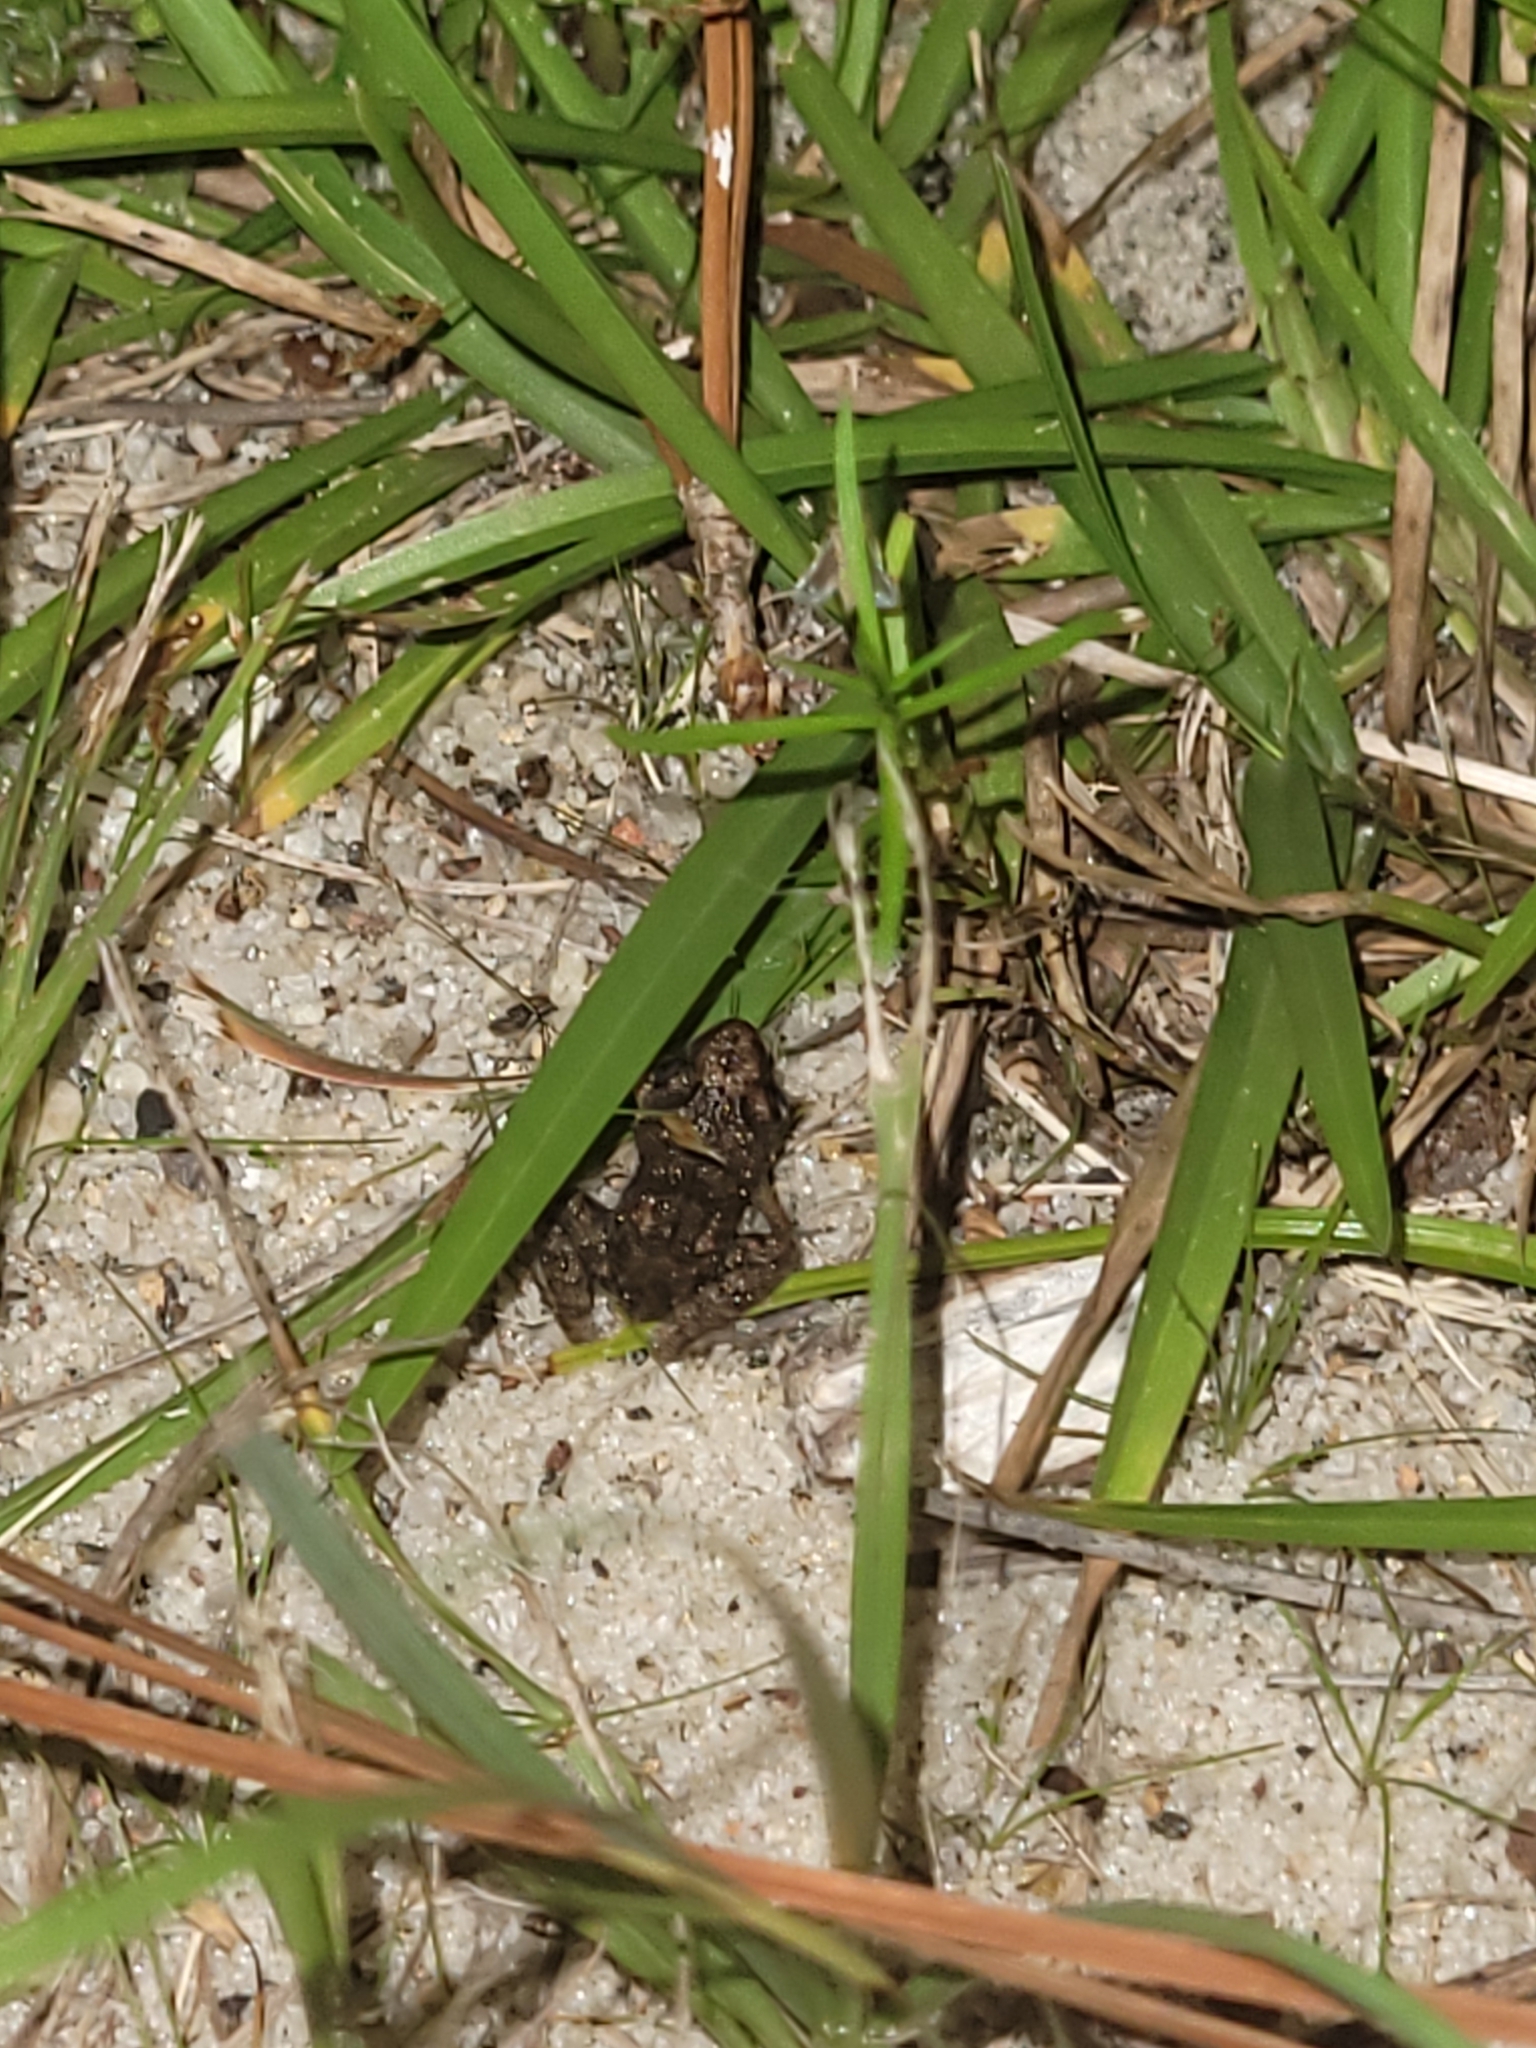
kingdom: Animalia
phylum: Chordata
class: Amphibia
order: Anura
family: Eleutherodactylidae
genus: Eleutherodactylus
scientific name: Eleutherodactylus planirostris
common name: Greenhouse frog
